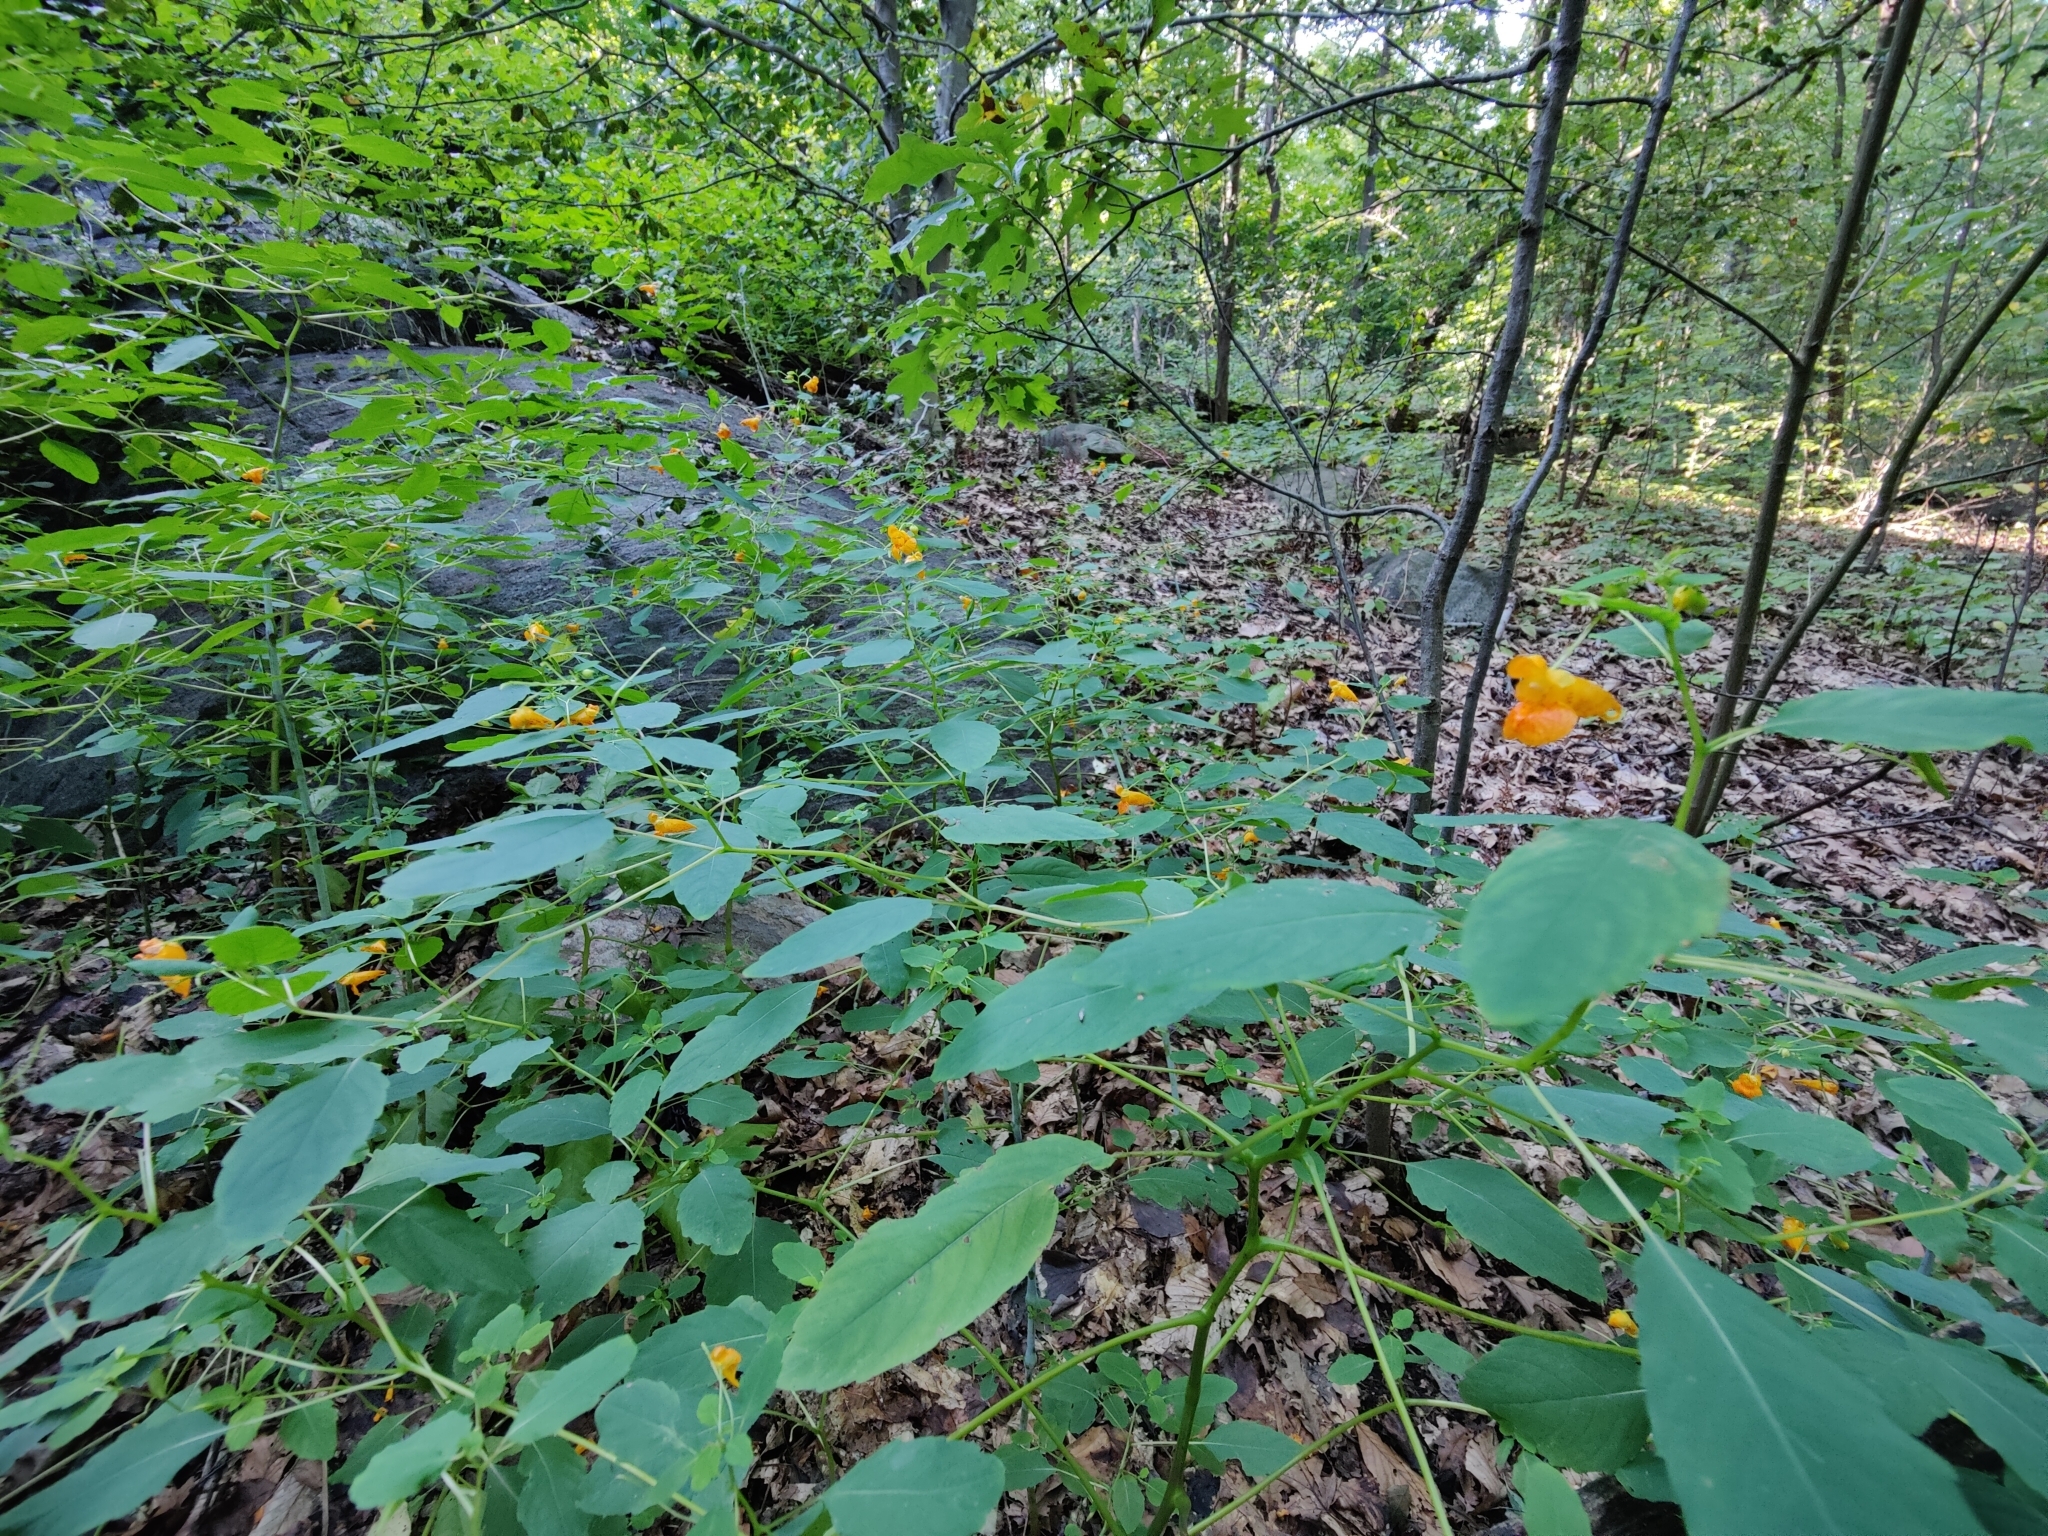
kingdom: Plantae
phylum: Tracheophyta
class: Magnoliopsida
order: Ericales
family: Balsaminaceae
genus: Impatiens
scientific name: Impatiens capensis
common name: Orange balsam
